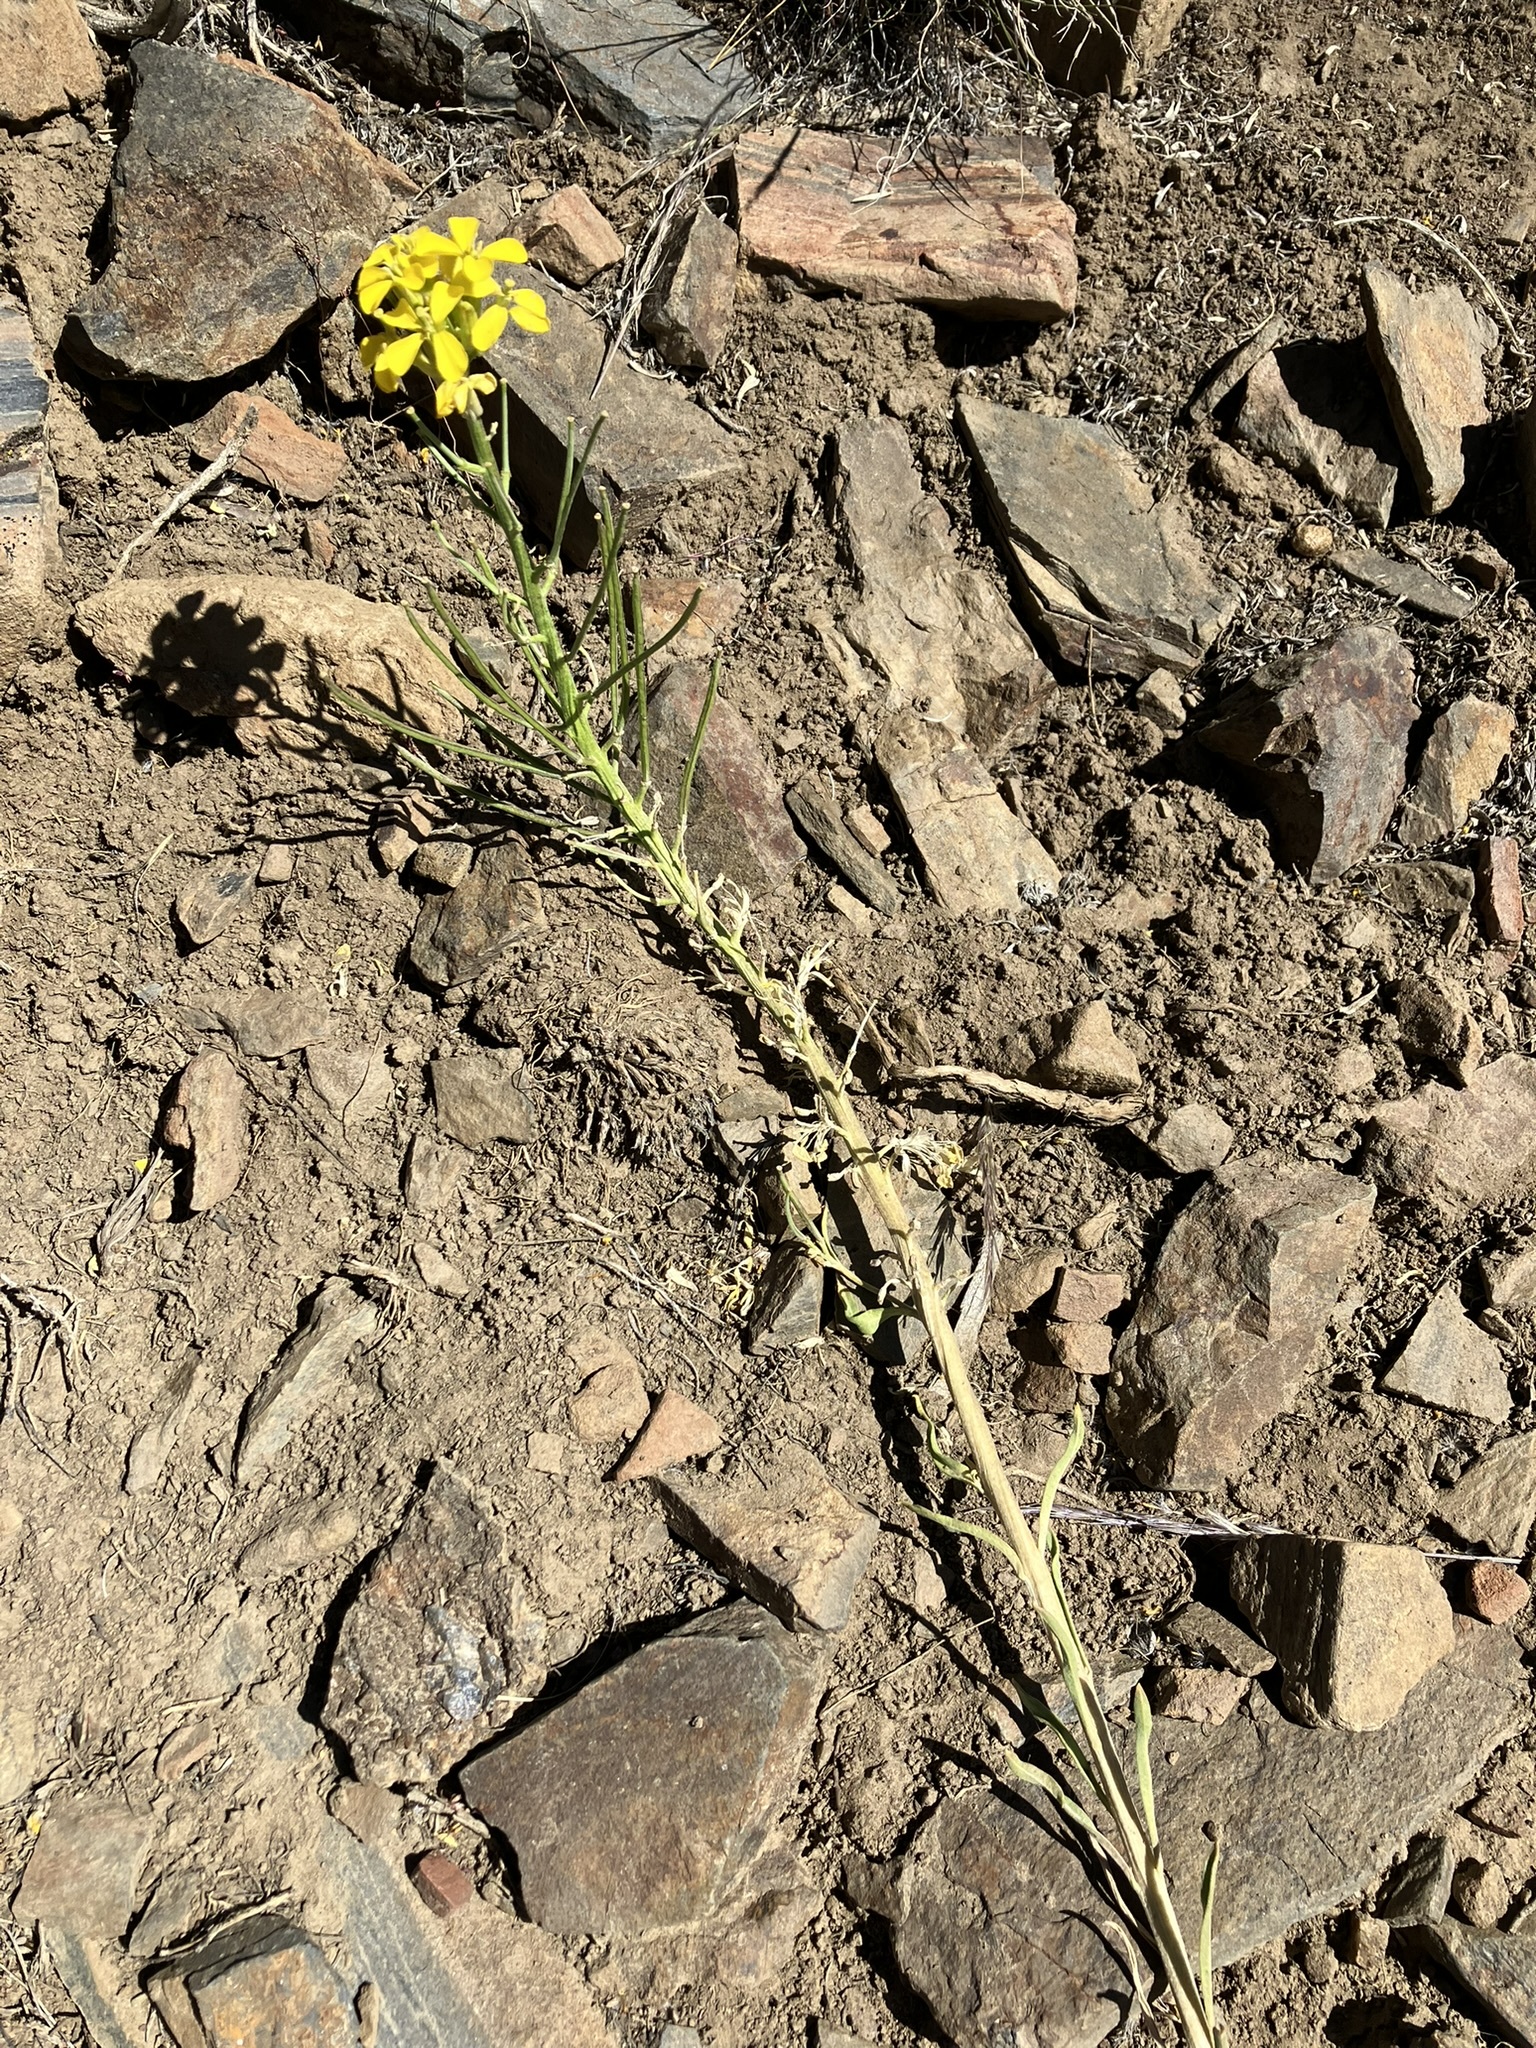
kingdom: Plantae
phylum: Tracheophyta
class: Magnoliopsida
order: Brassicales
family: Brassicaceae
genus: Erysimum
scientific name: Erysimum capitatum
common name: Western wallflower
